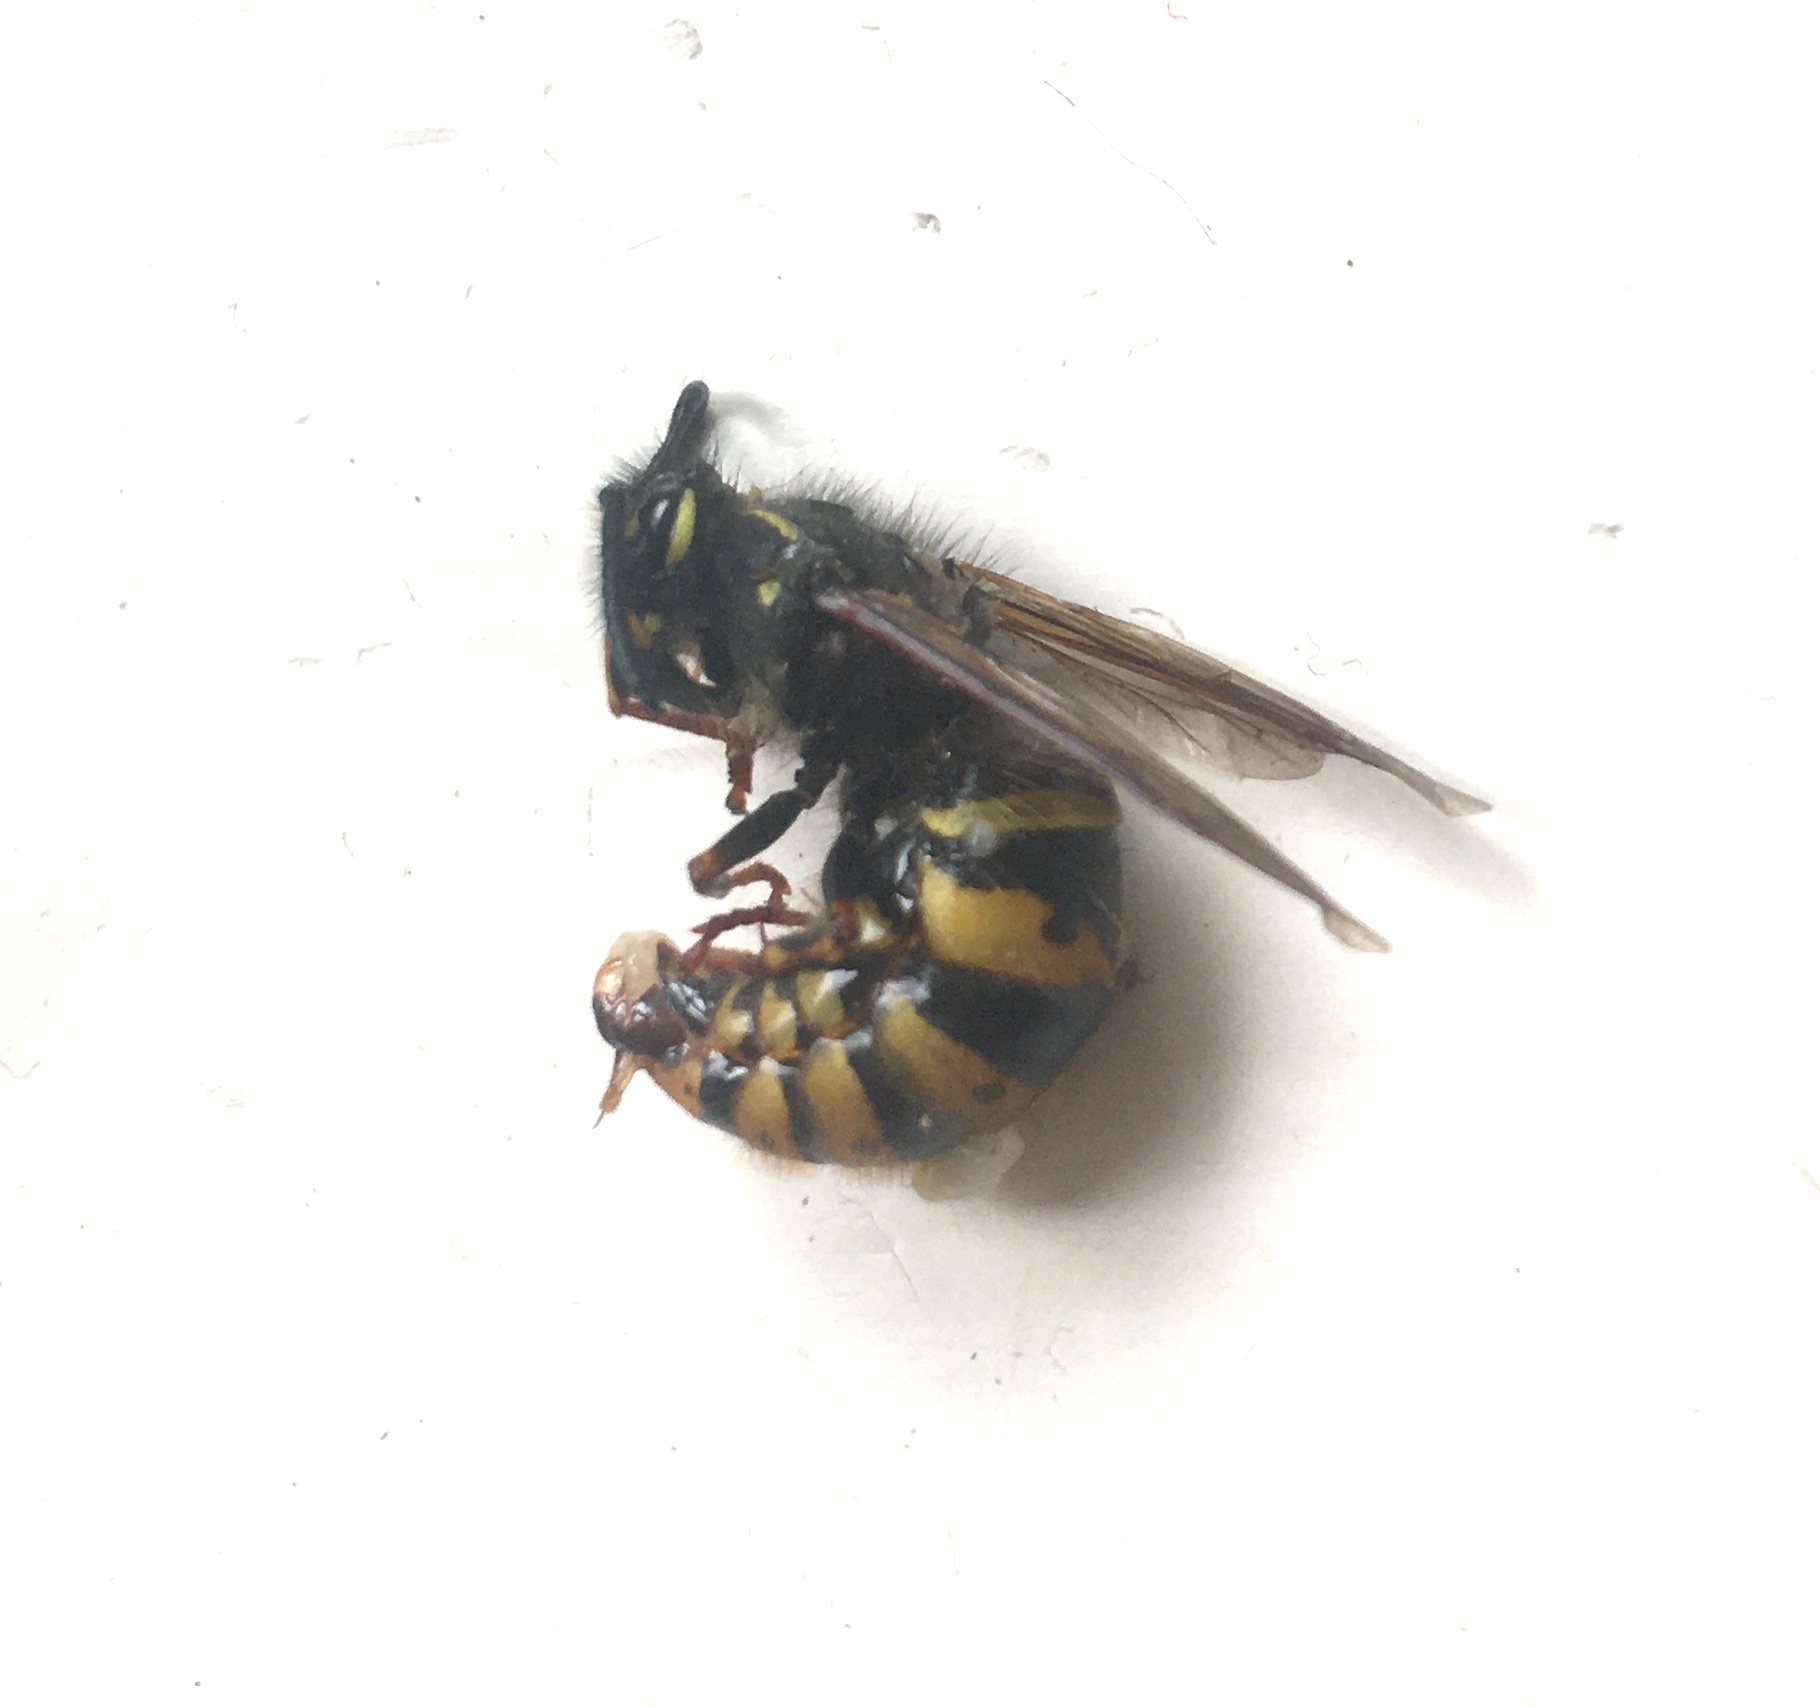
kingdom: Animalia
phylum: Arthropoda
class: Insecta
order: Hymenoptera
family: Vespidae
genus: Vespula
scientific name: Vespula vulgaris
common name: Common wasp
